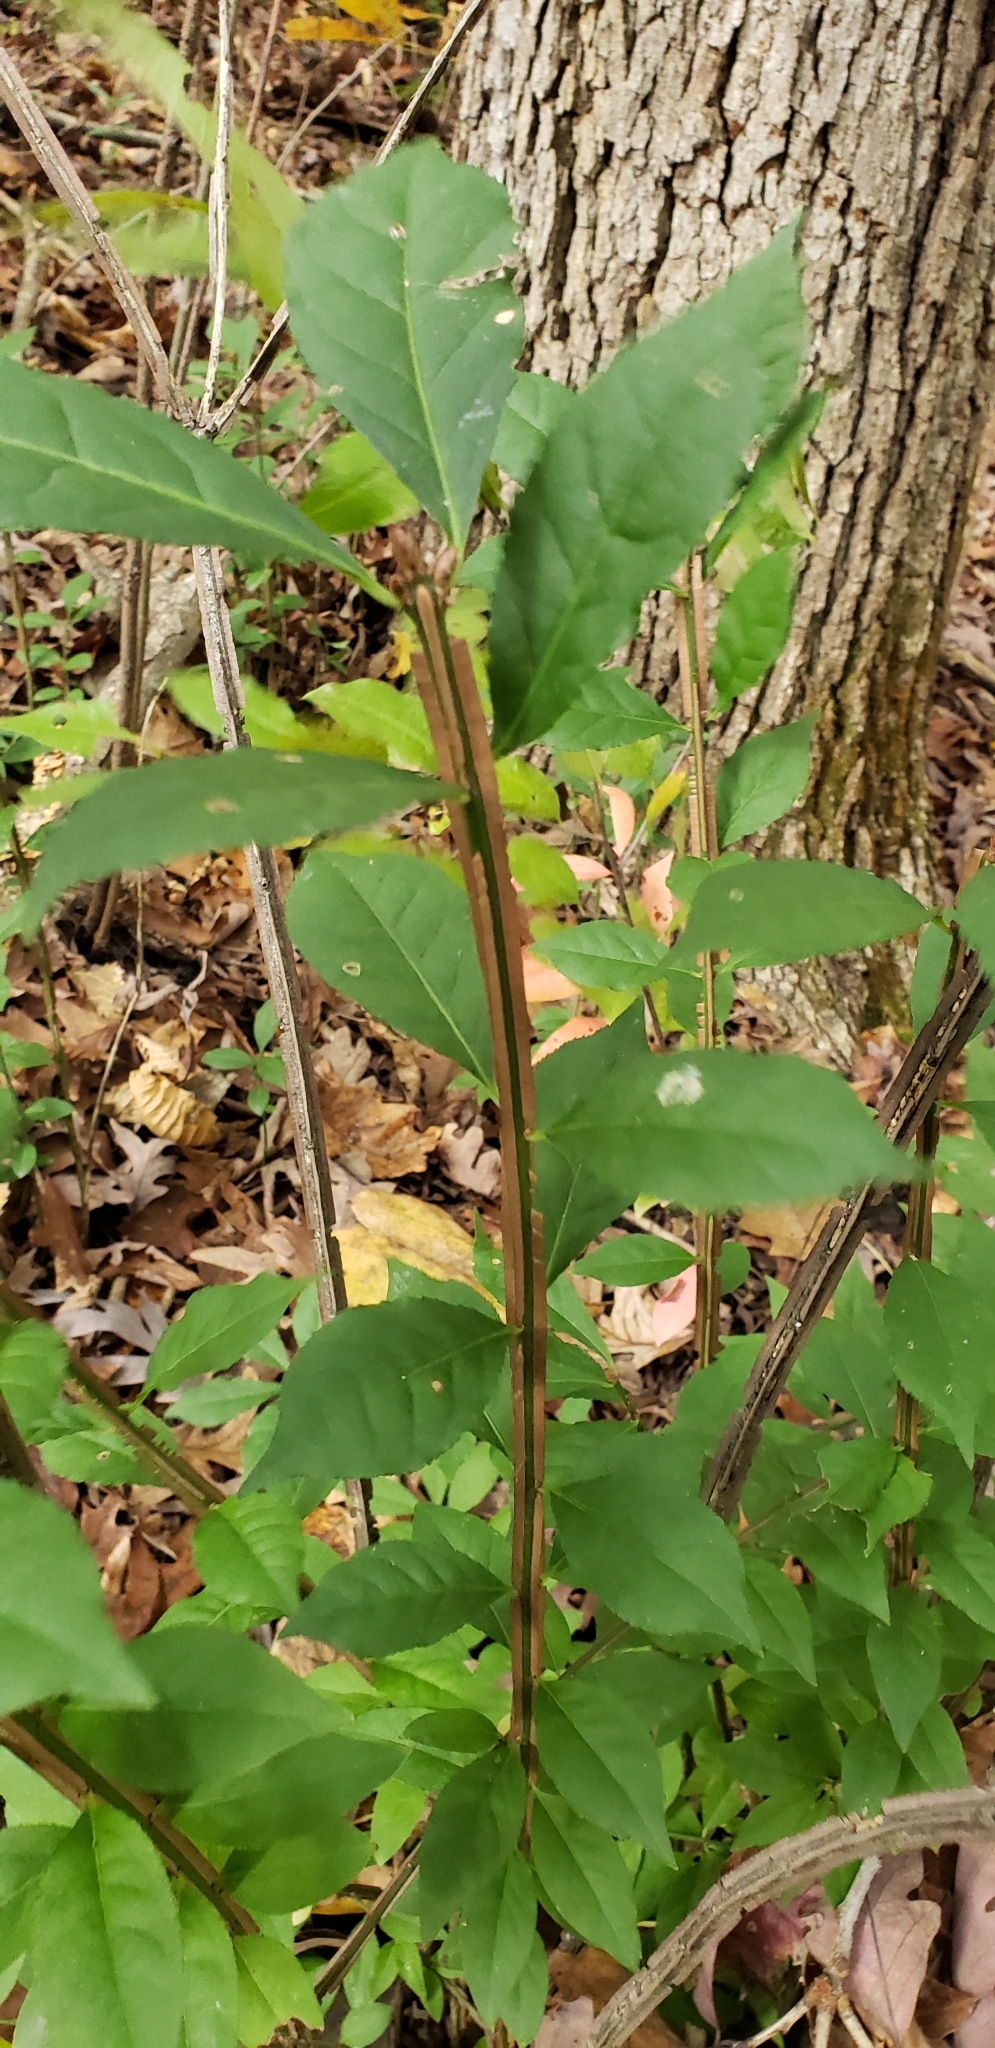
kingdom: Plantae
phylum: Tracheophyta
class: Magnoliopsida
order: Celastrales
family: Celastraceae
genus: Euonymus
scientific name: Euonymus alatus
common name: Winged euonymus
